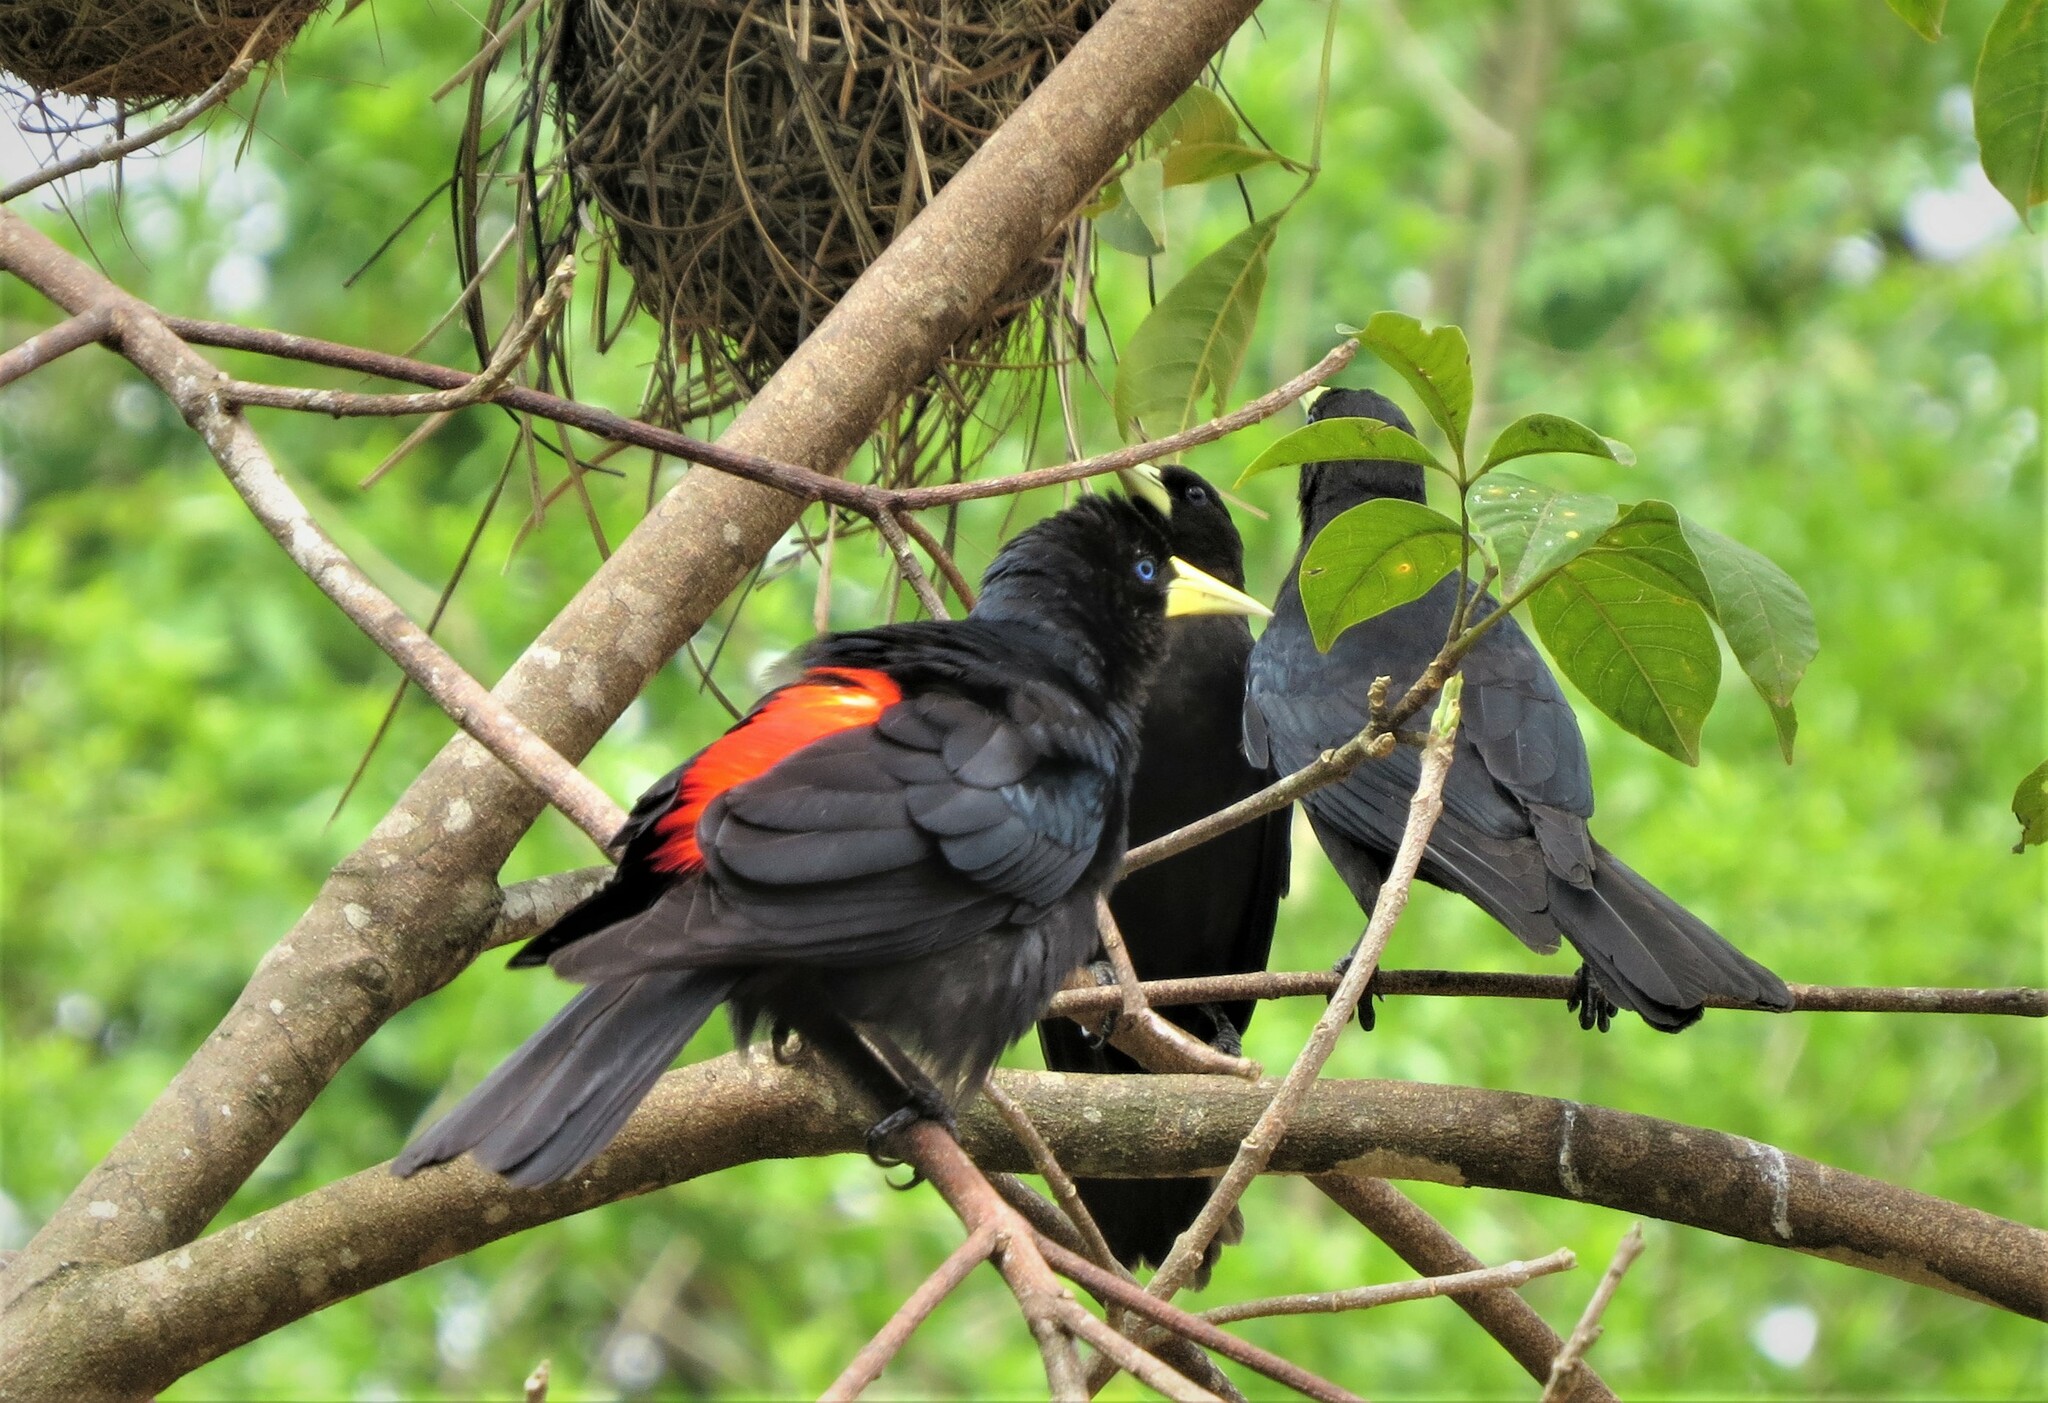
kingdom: Animalia
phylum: Chordata
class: Aves
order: Passeriformes
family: Icteridae
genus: Cacicus
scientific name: Cacicus haemorrhous
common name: Red-rumped cacique
